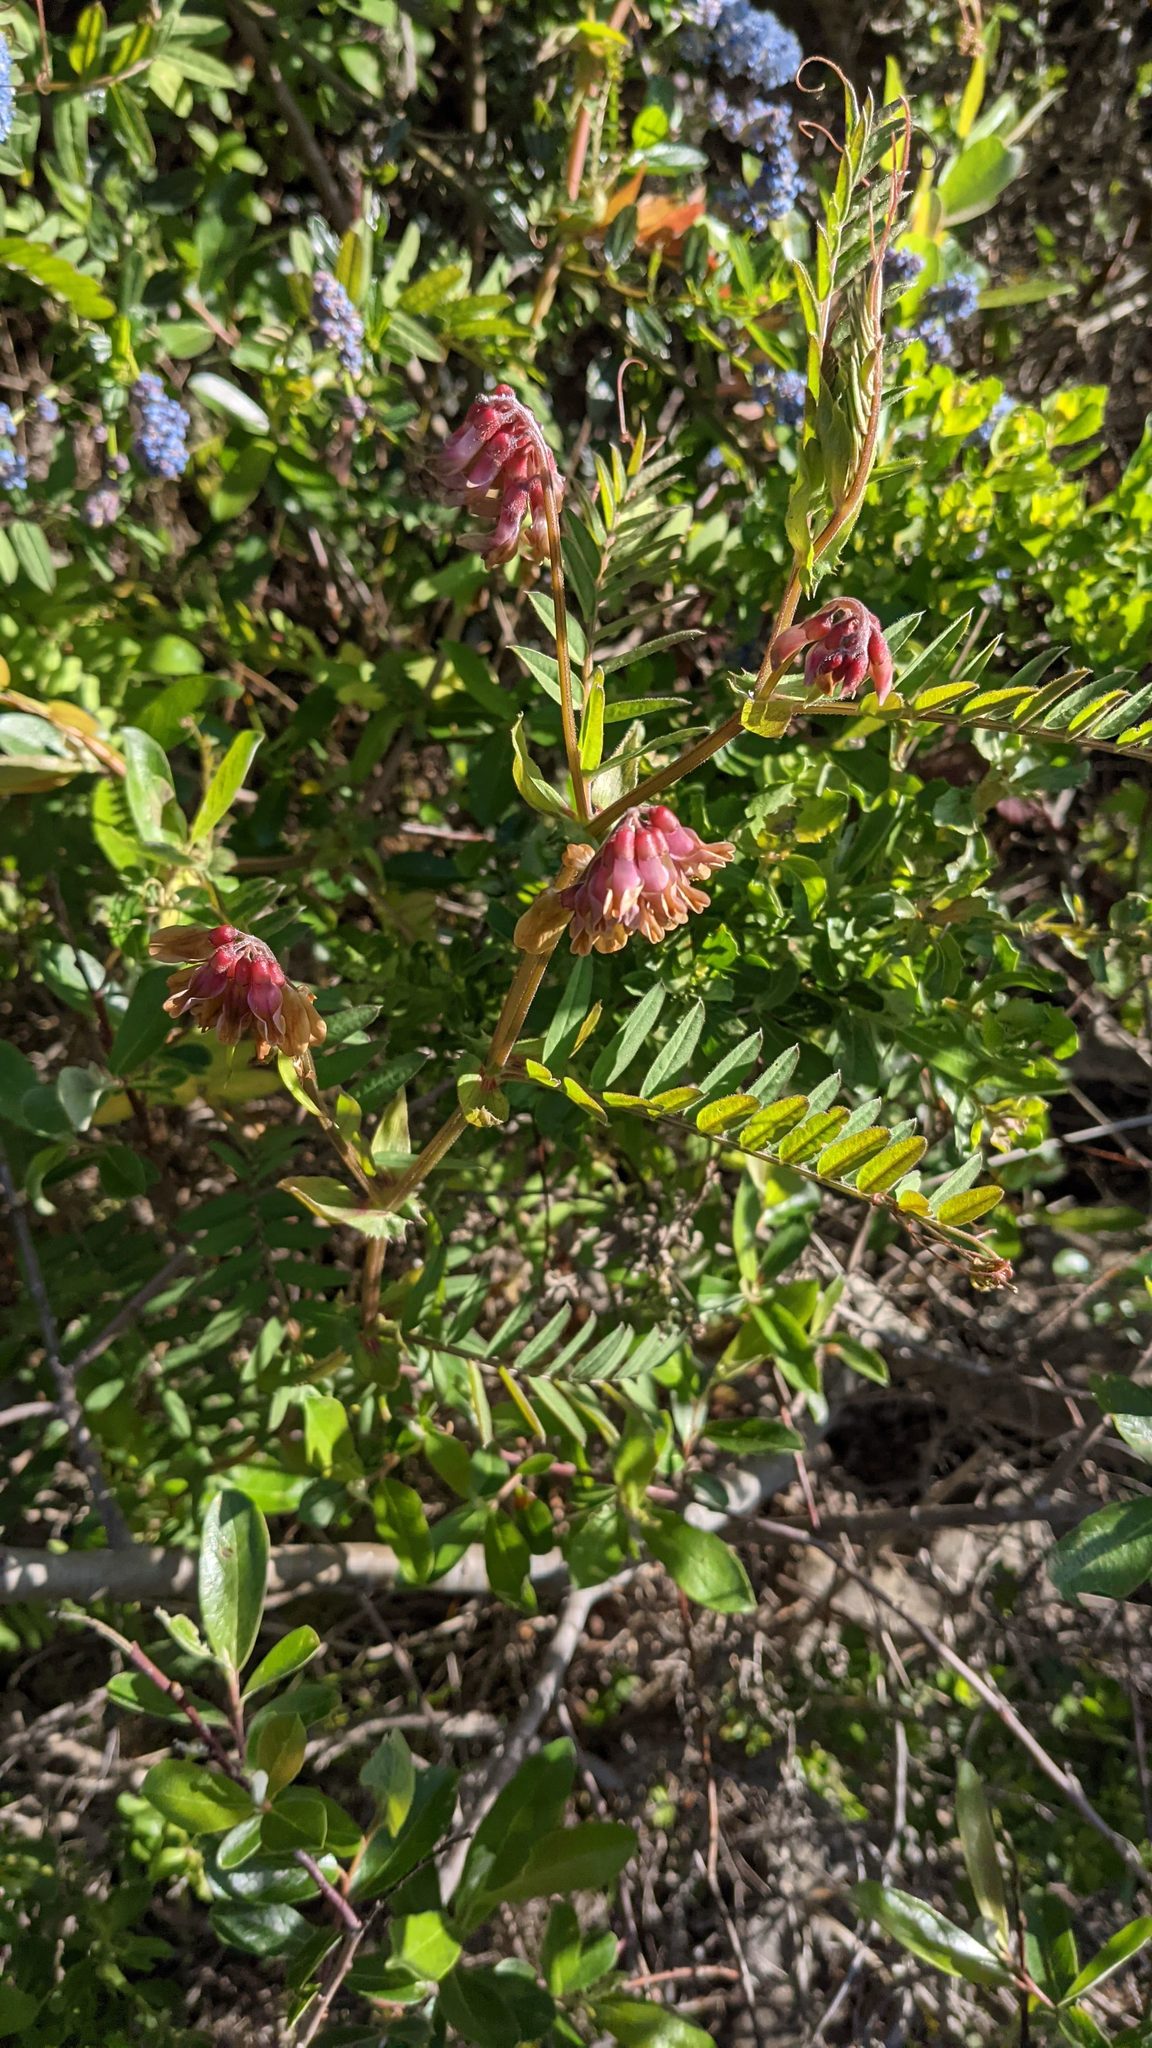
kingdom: Plantae
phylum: Tracheophyta
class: Magnoliopsida
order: Fabales
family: Fabaceae
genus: Vicia
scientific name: Vicia
